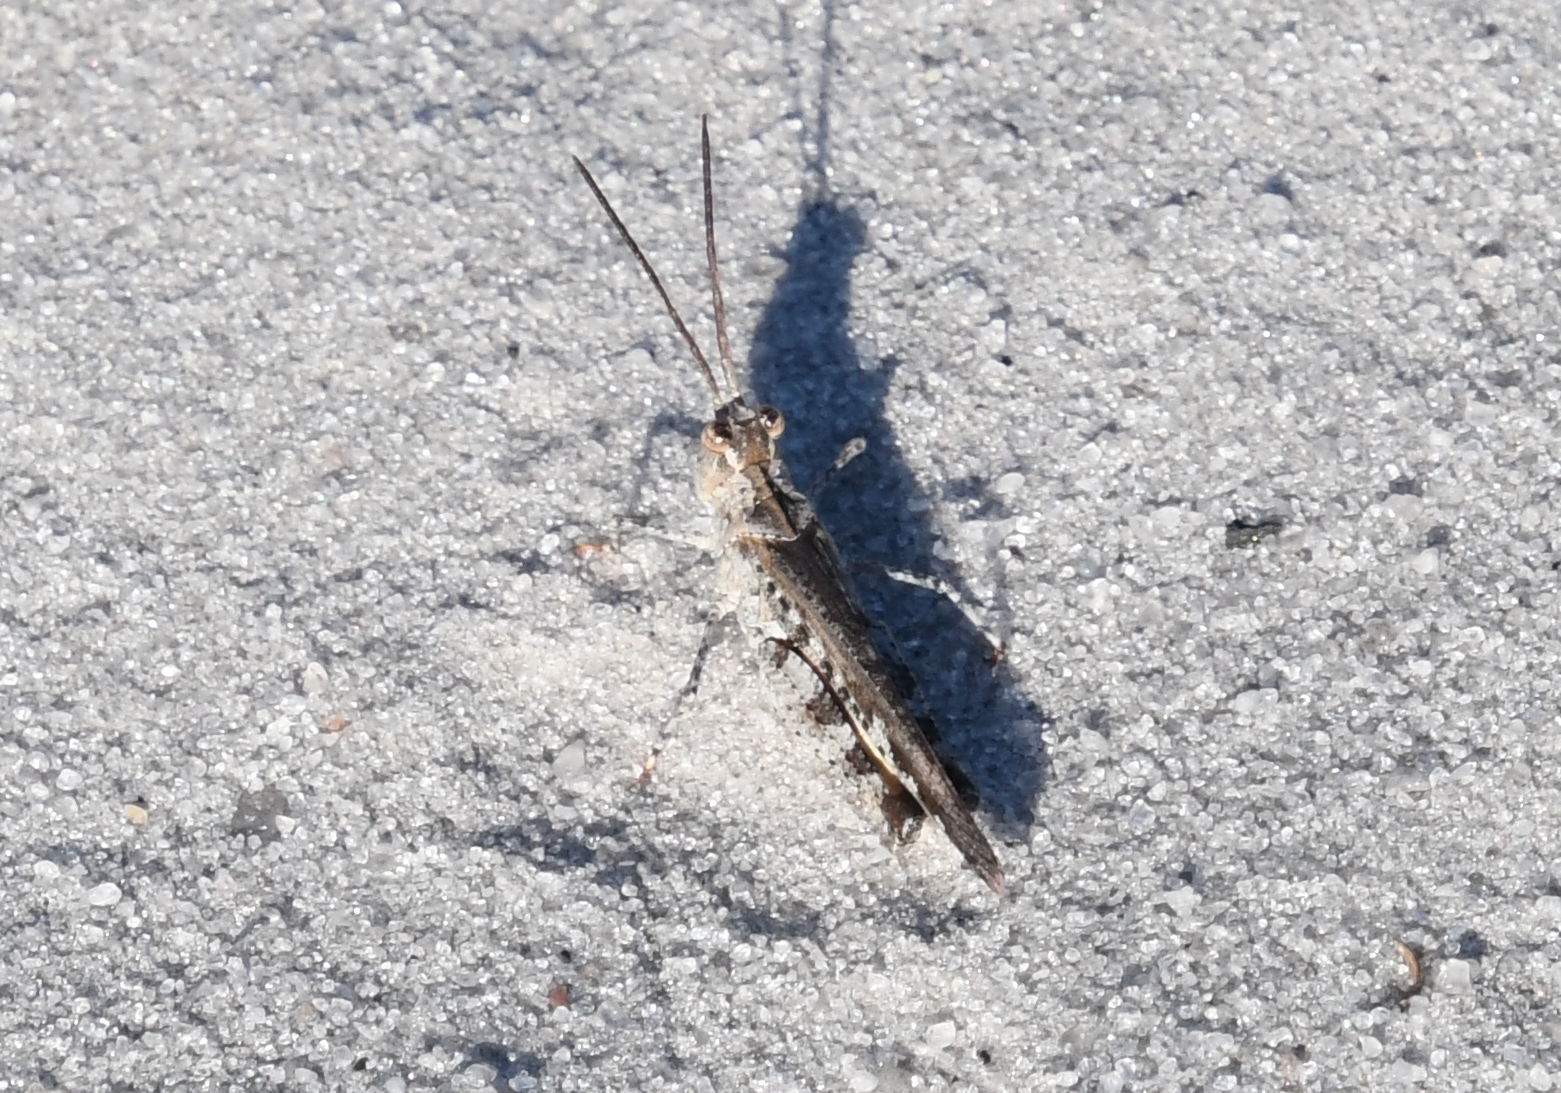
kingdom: Animalia
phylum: Arthropoda
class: Insecta
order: Orthoptera
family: Acrididae
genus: Psinidia
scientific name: Psinidia fenestralis
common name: Long-horned locust
